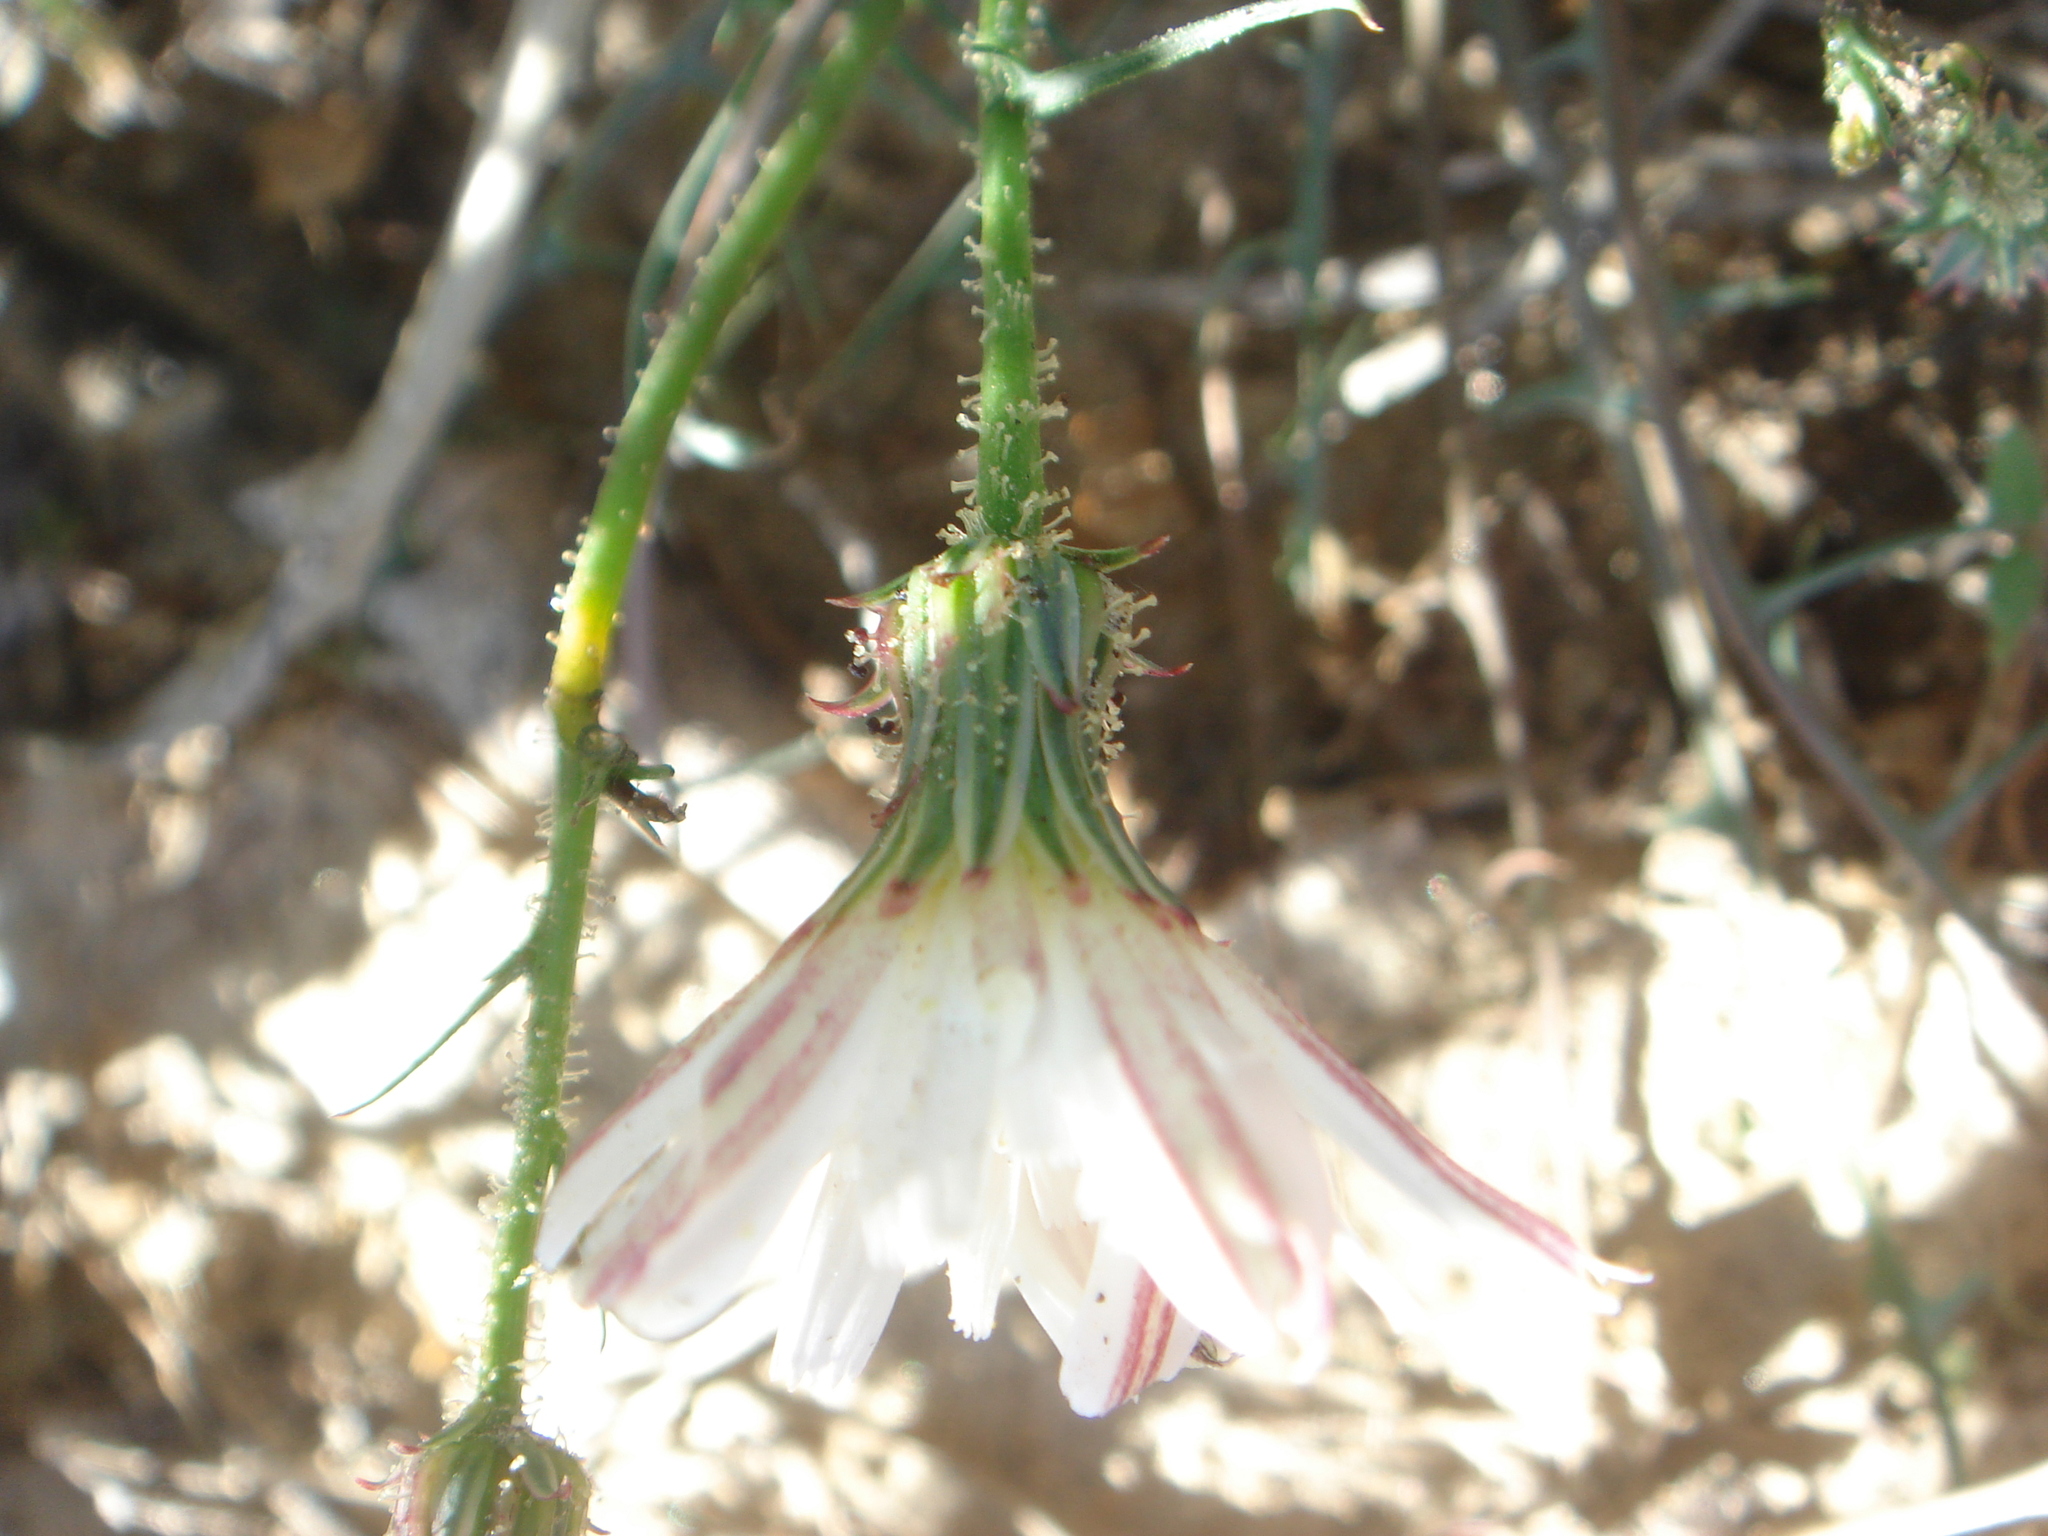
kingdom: Plantae
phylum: Tracheophyta
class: Magnoliopsida
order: Asterales
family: Asteraceae
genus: Calycoseris
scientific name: Calycoseris wrightii
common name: White tackstem
